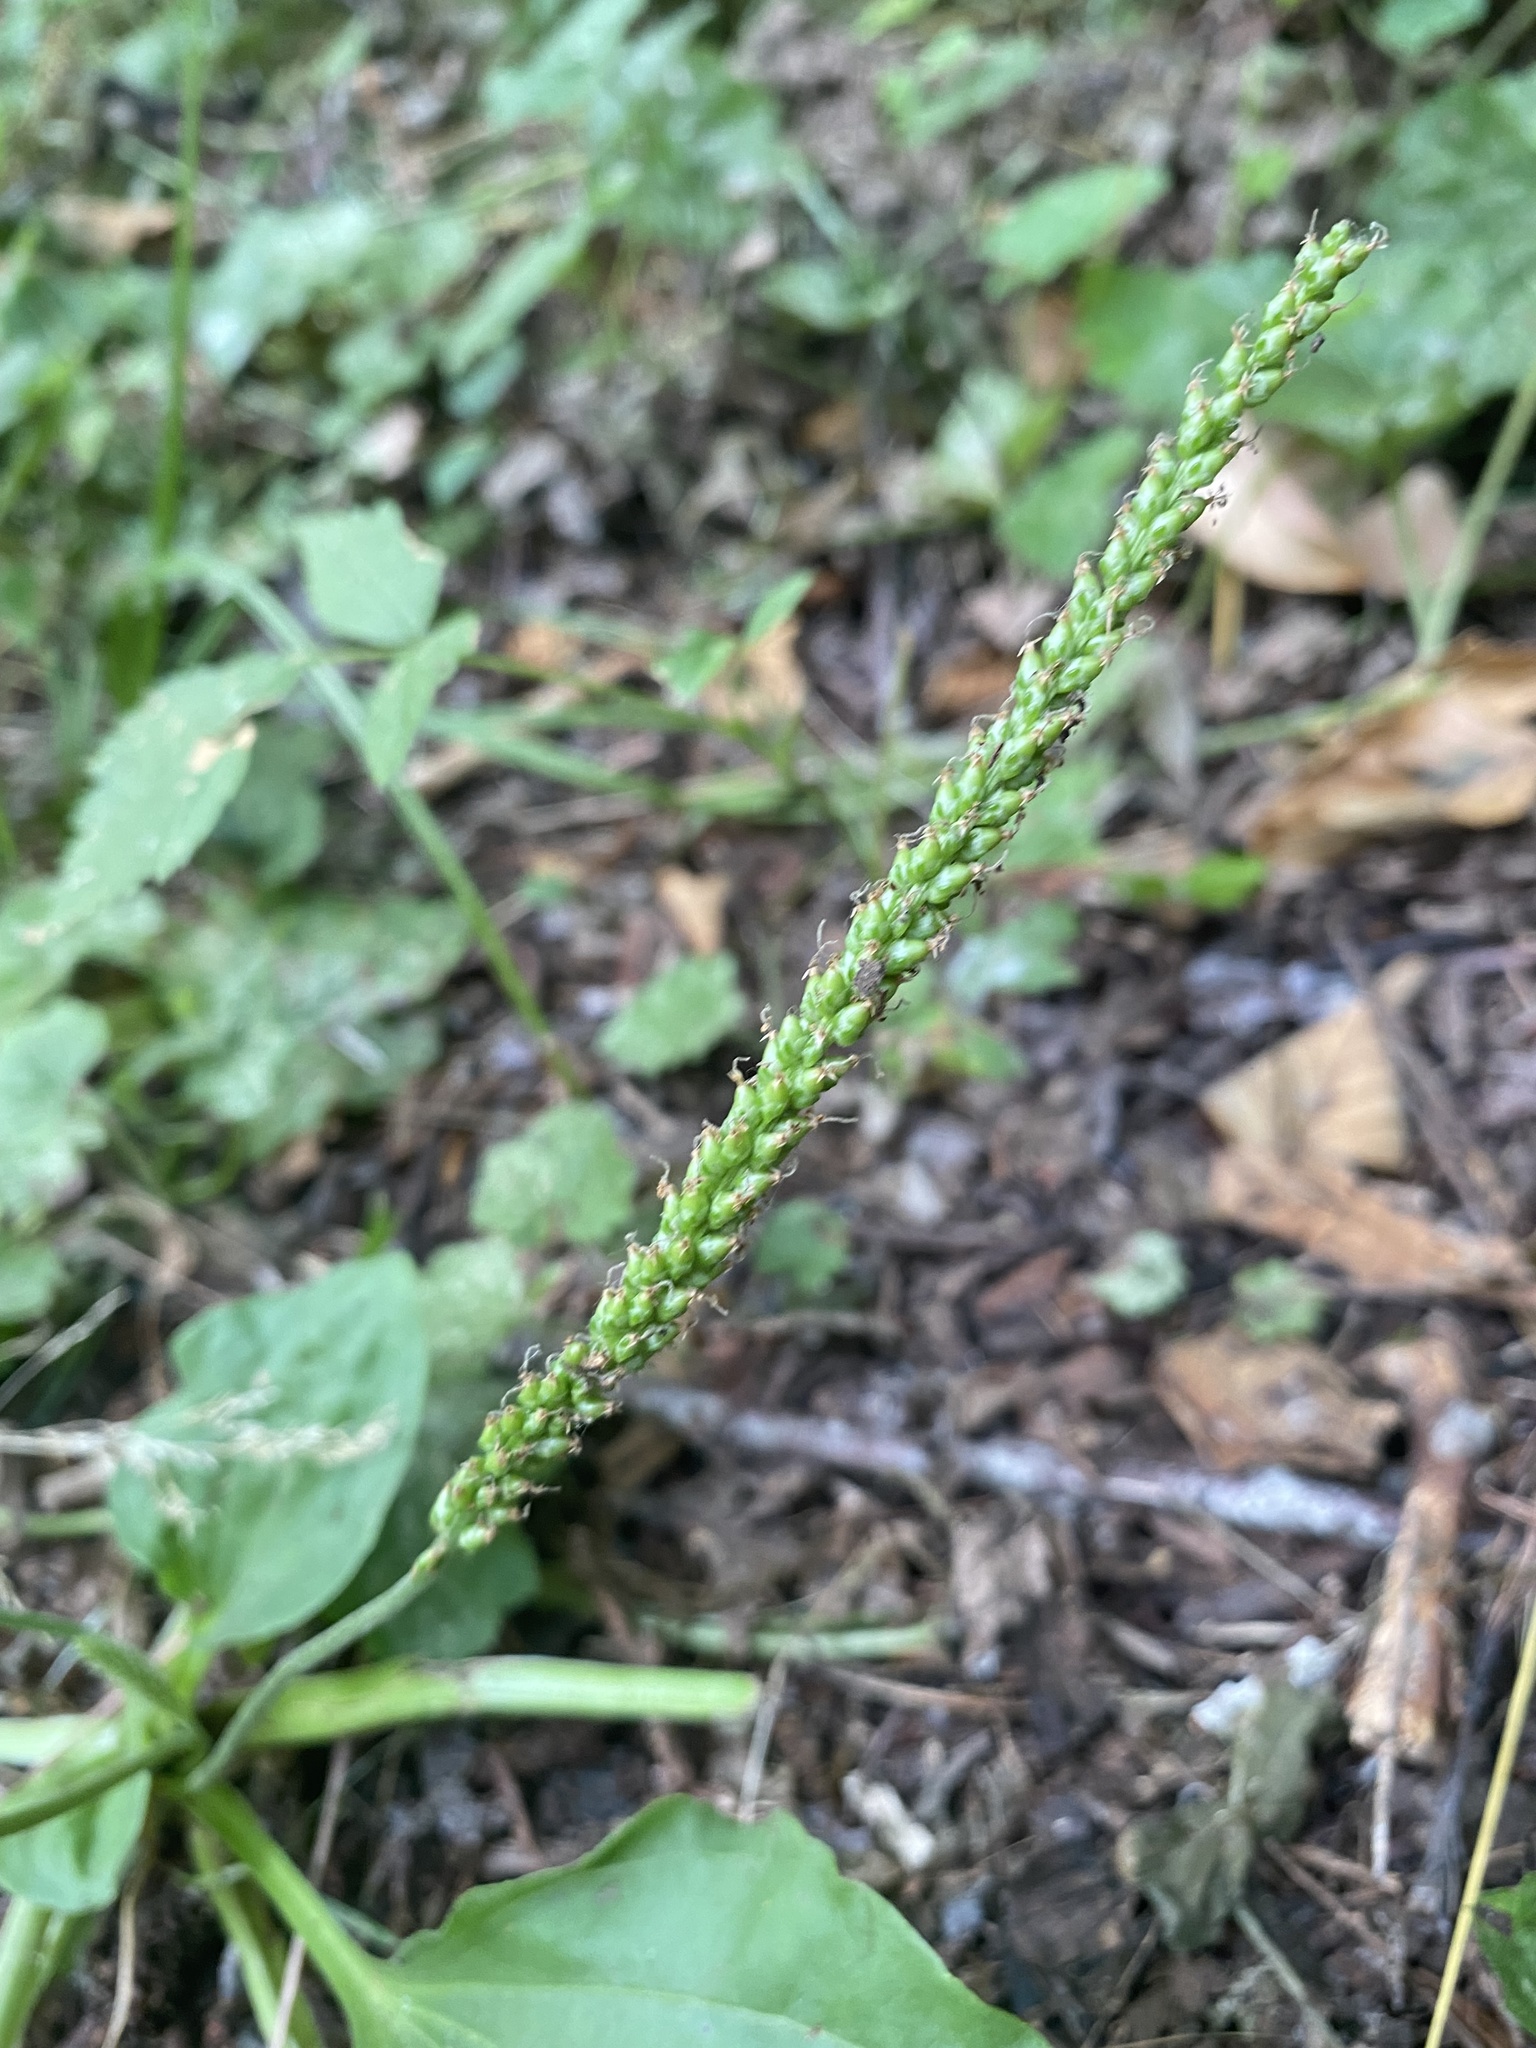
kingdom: Plantae
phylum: Tracheophyta
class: Magnoliopsida
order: Lamiales
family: Plantaginaceae
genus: Plantago
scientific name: Plantago major
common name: Common plantain
